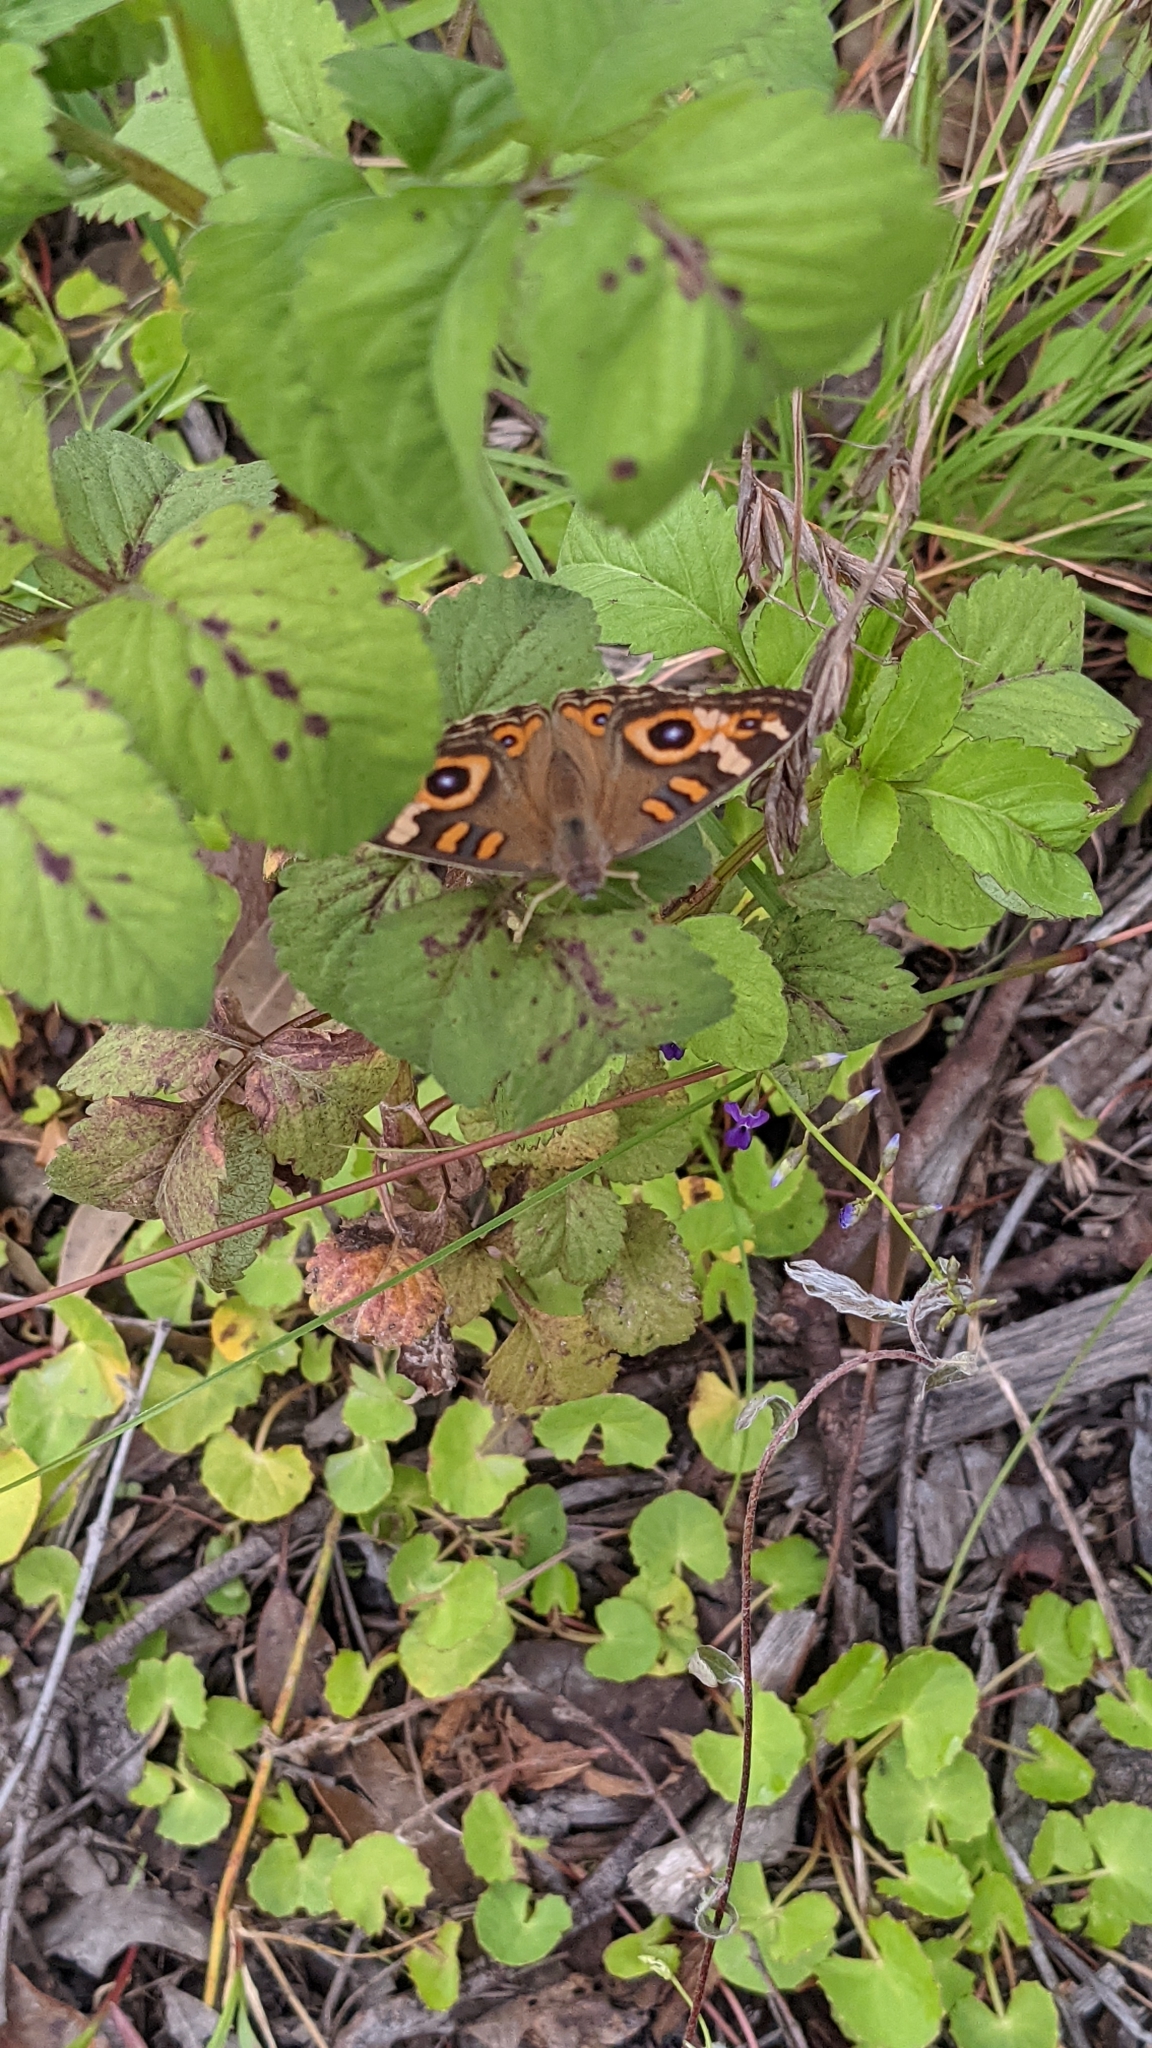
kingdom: Animalia
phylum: Arthropoda
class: Insecta
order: Lepidoptera
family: Nymphalidae
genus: Junonia
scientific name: Junonia villida
